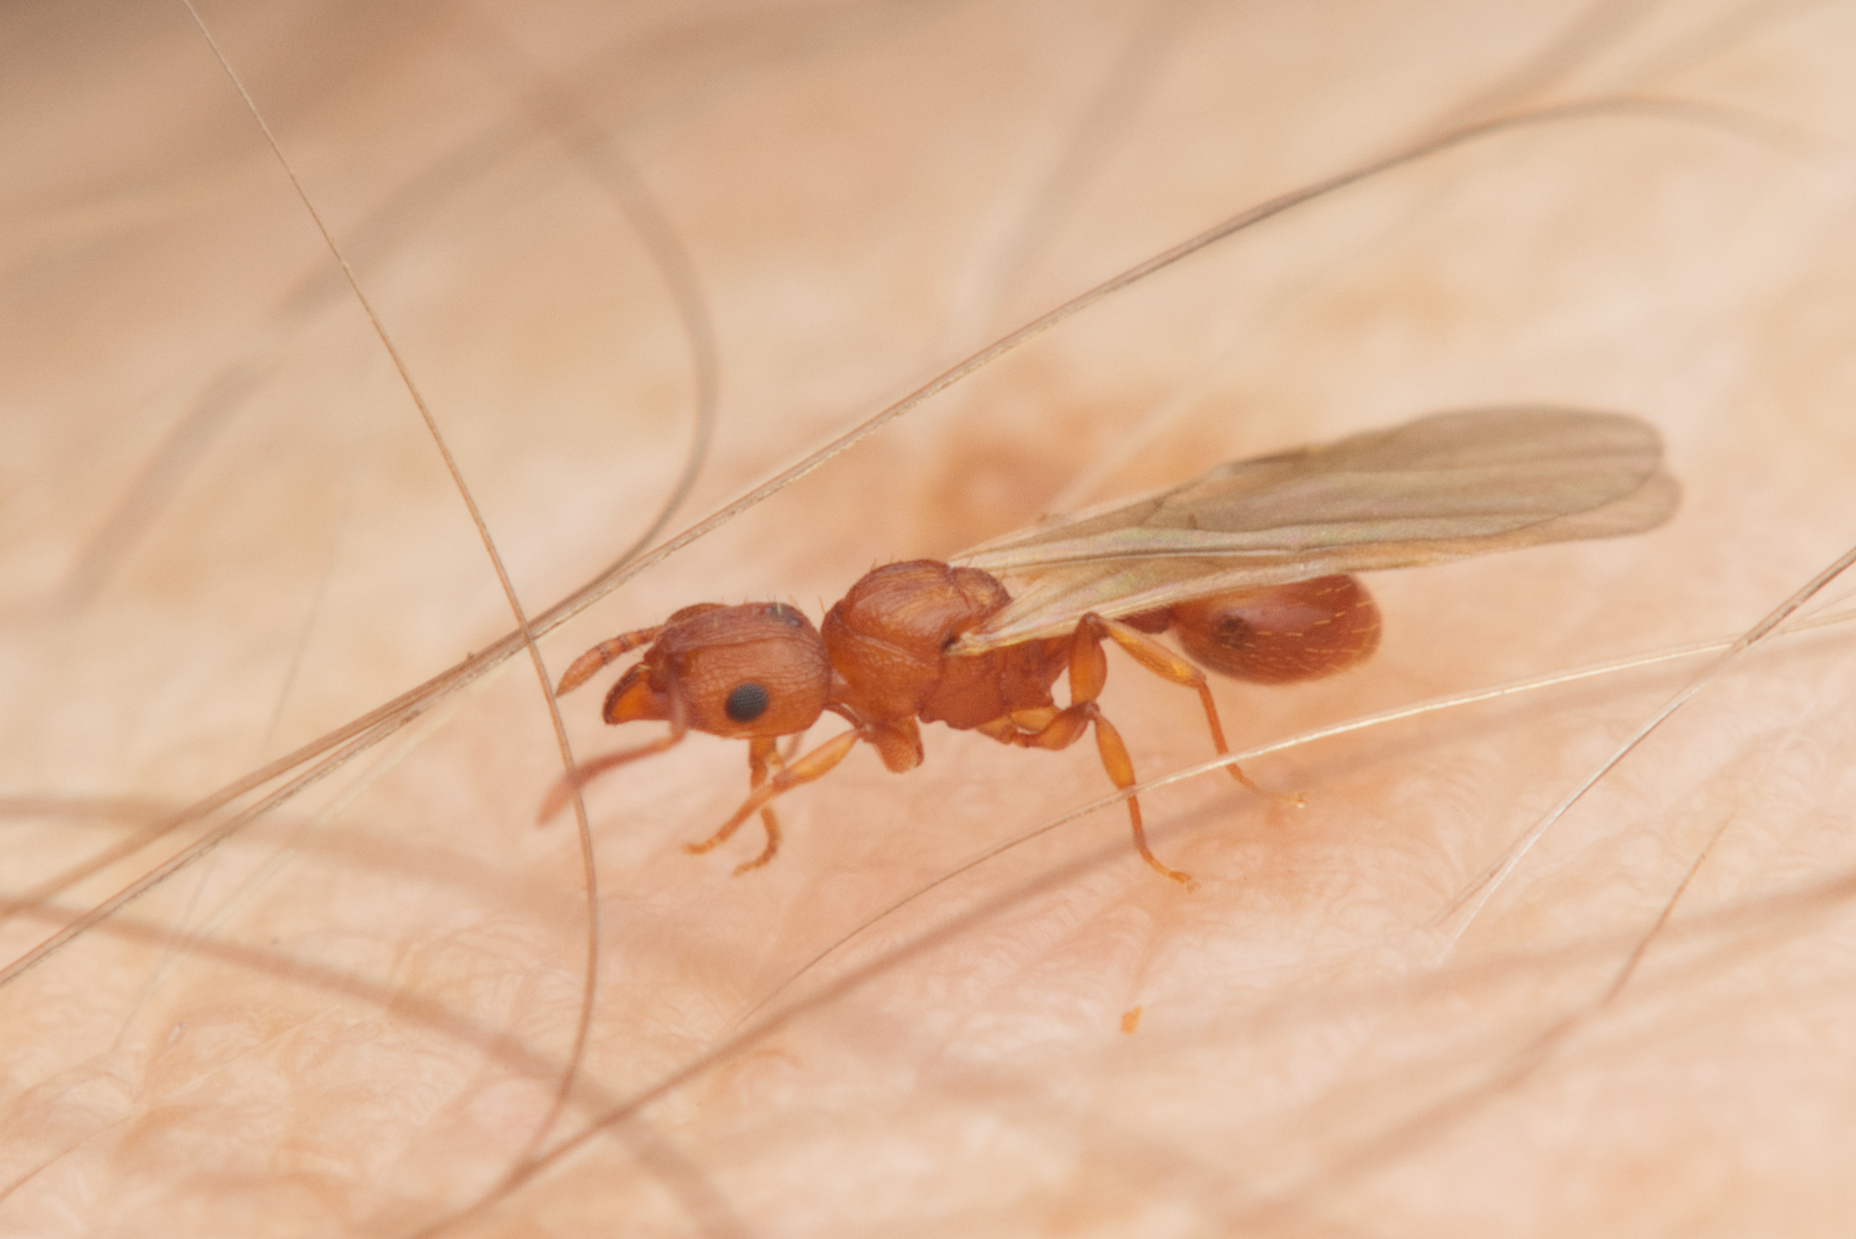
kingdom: Animalia
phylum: Arthropoda
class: Insecta
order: Hymenoptera
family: Formicidae
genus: Tetramorium
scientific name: Tetramorium simillimum
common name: Ant
